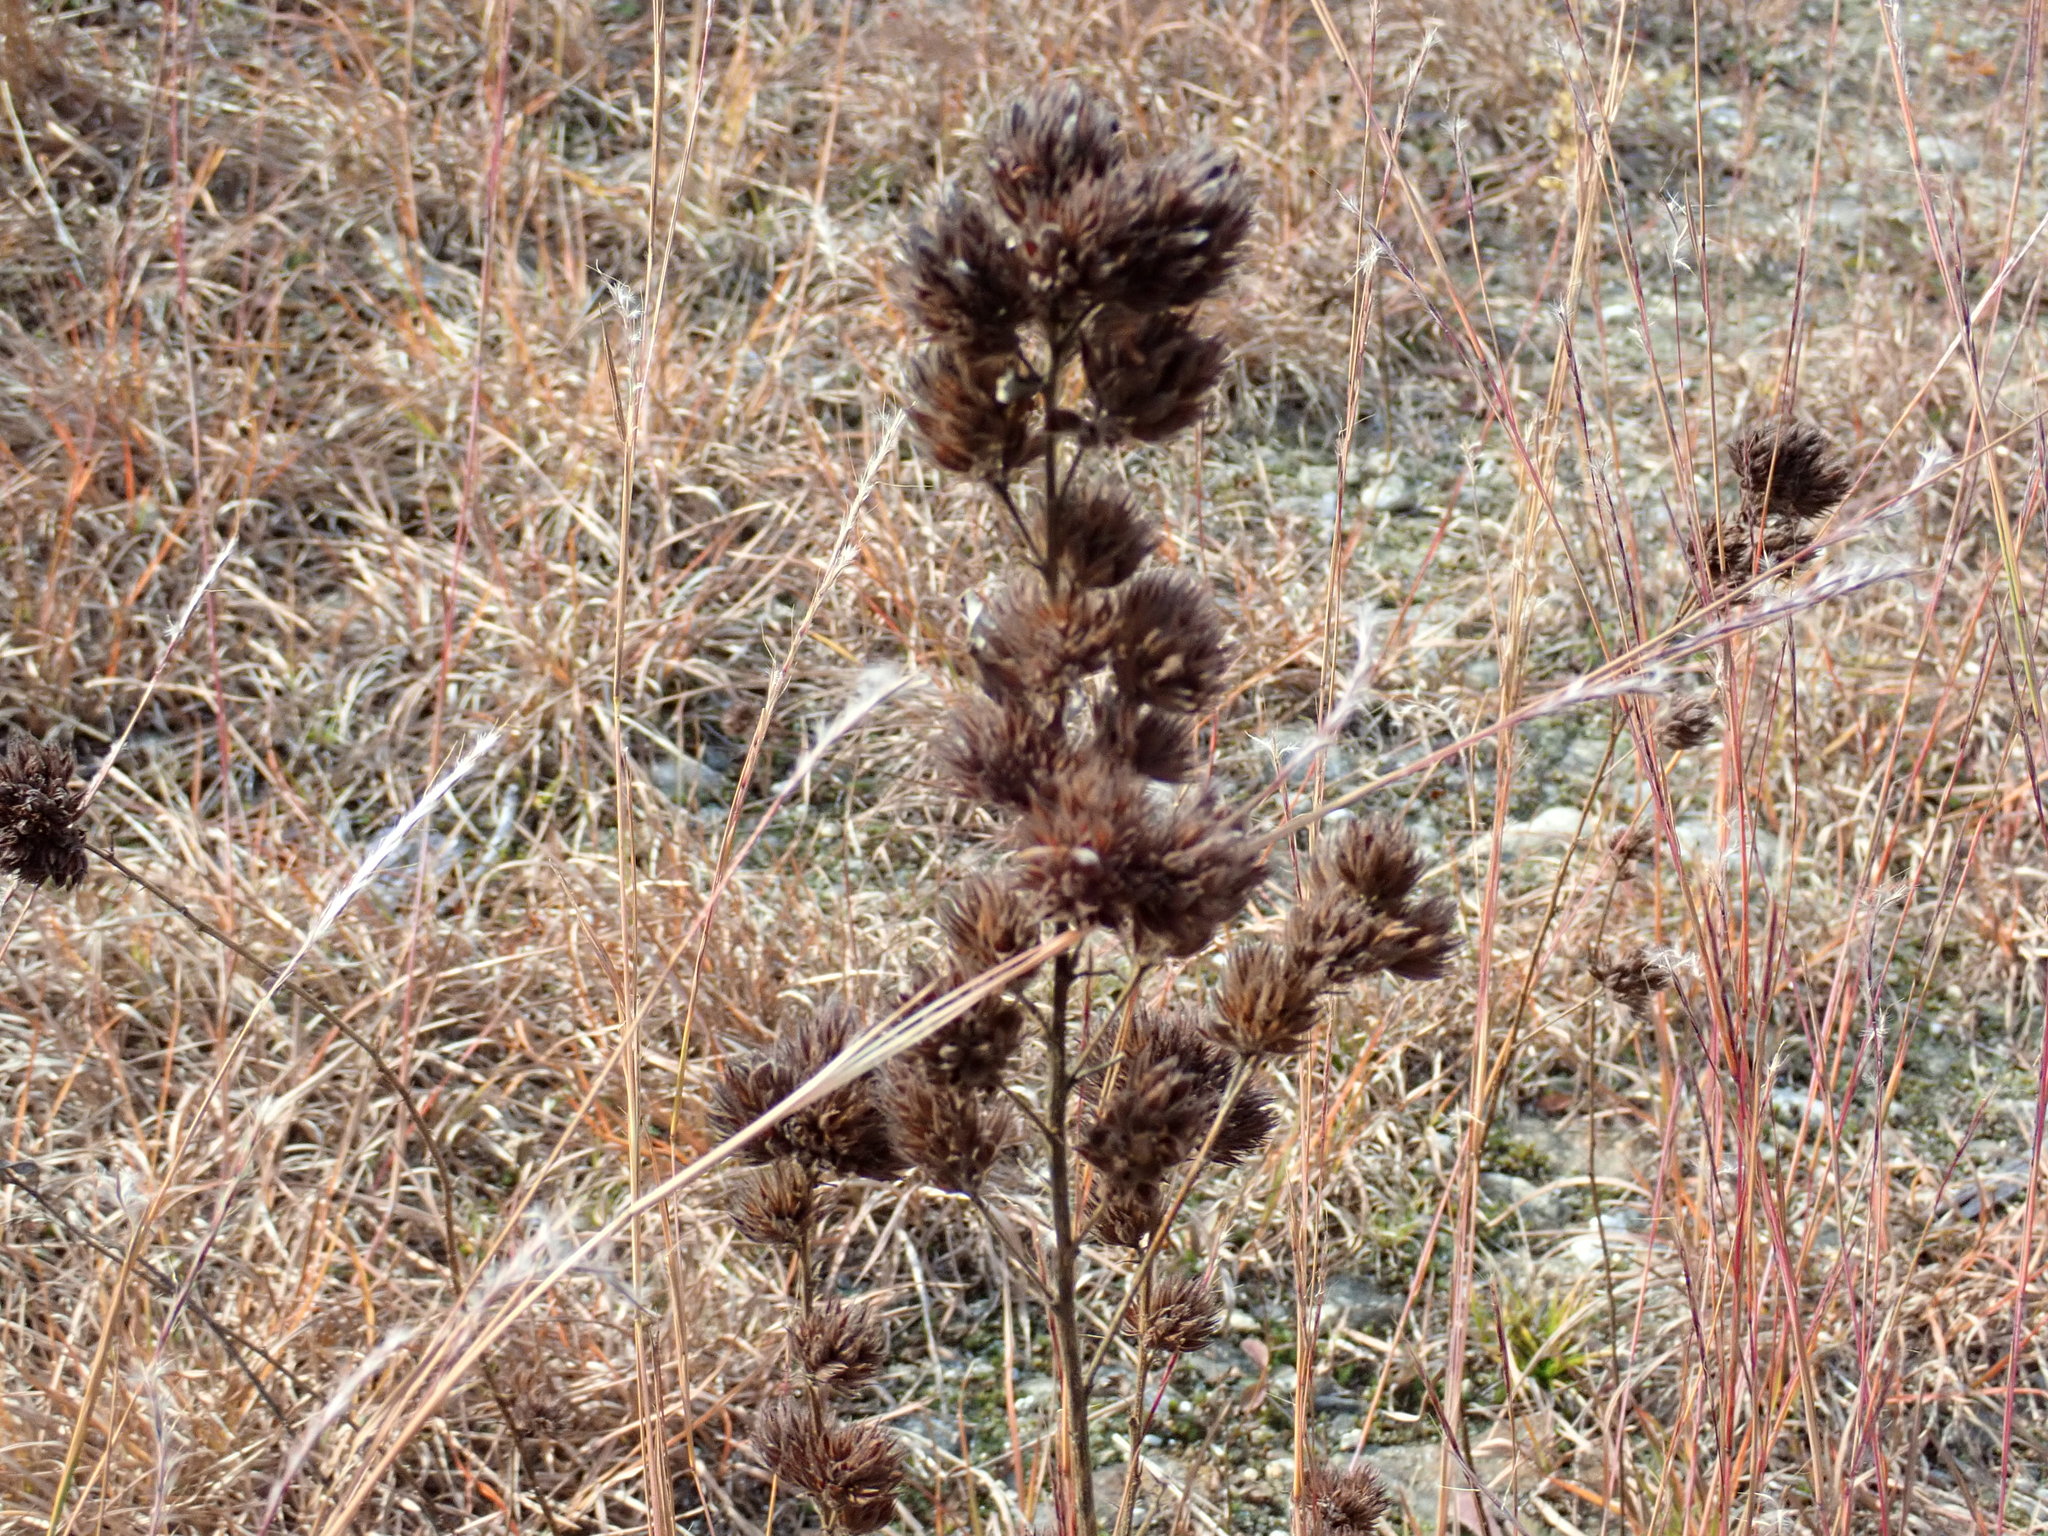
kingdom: Plantae
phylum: Tracheophyta
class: Magnoliopsida
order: Fabales
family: Fabaceae
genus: Lespedeza
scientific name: Lespedeza capitata
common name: Dusty clover
